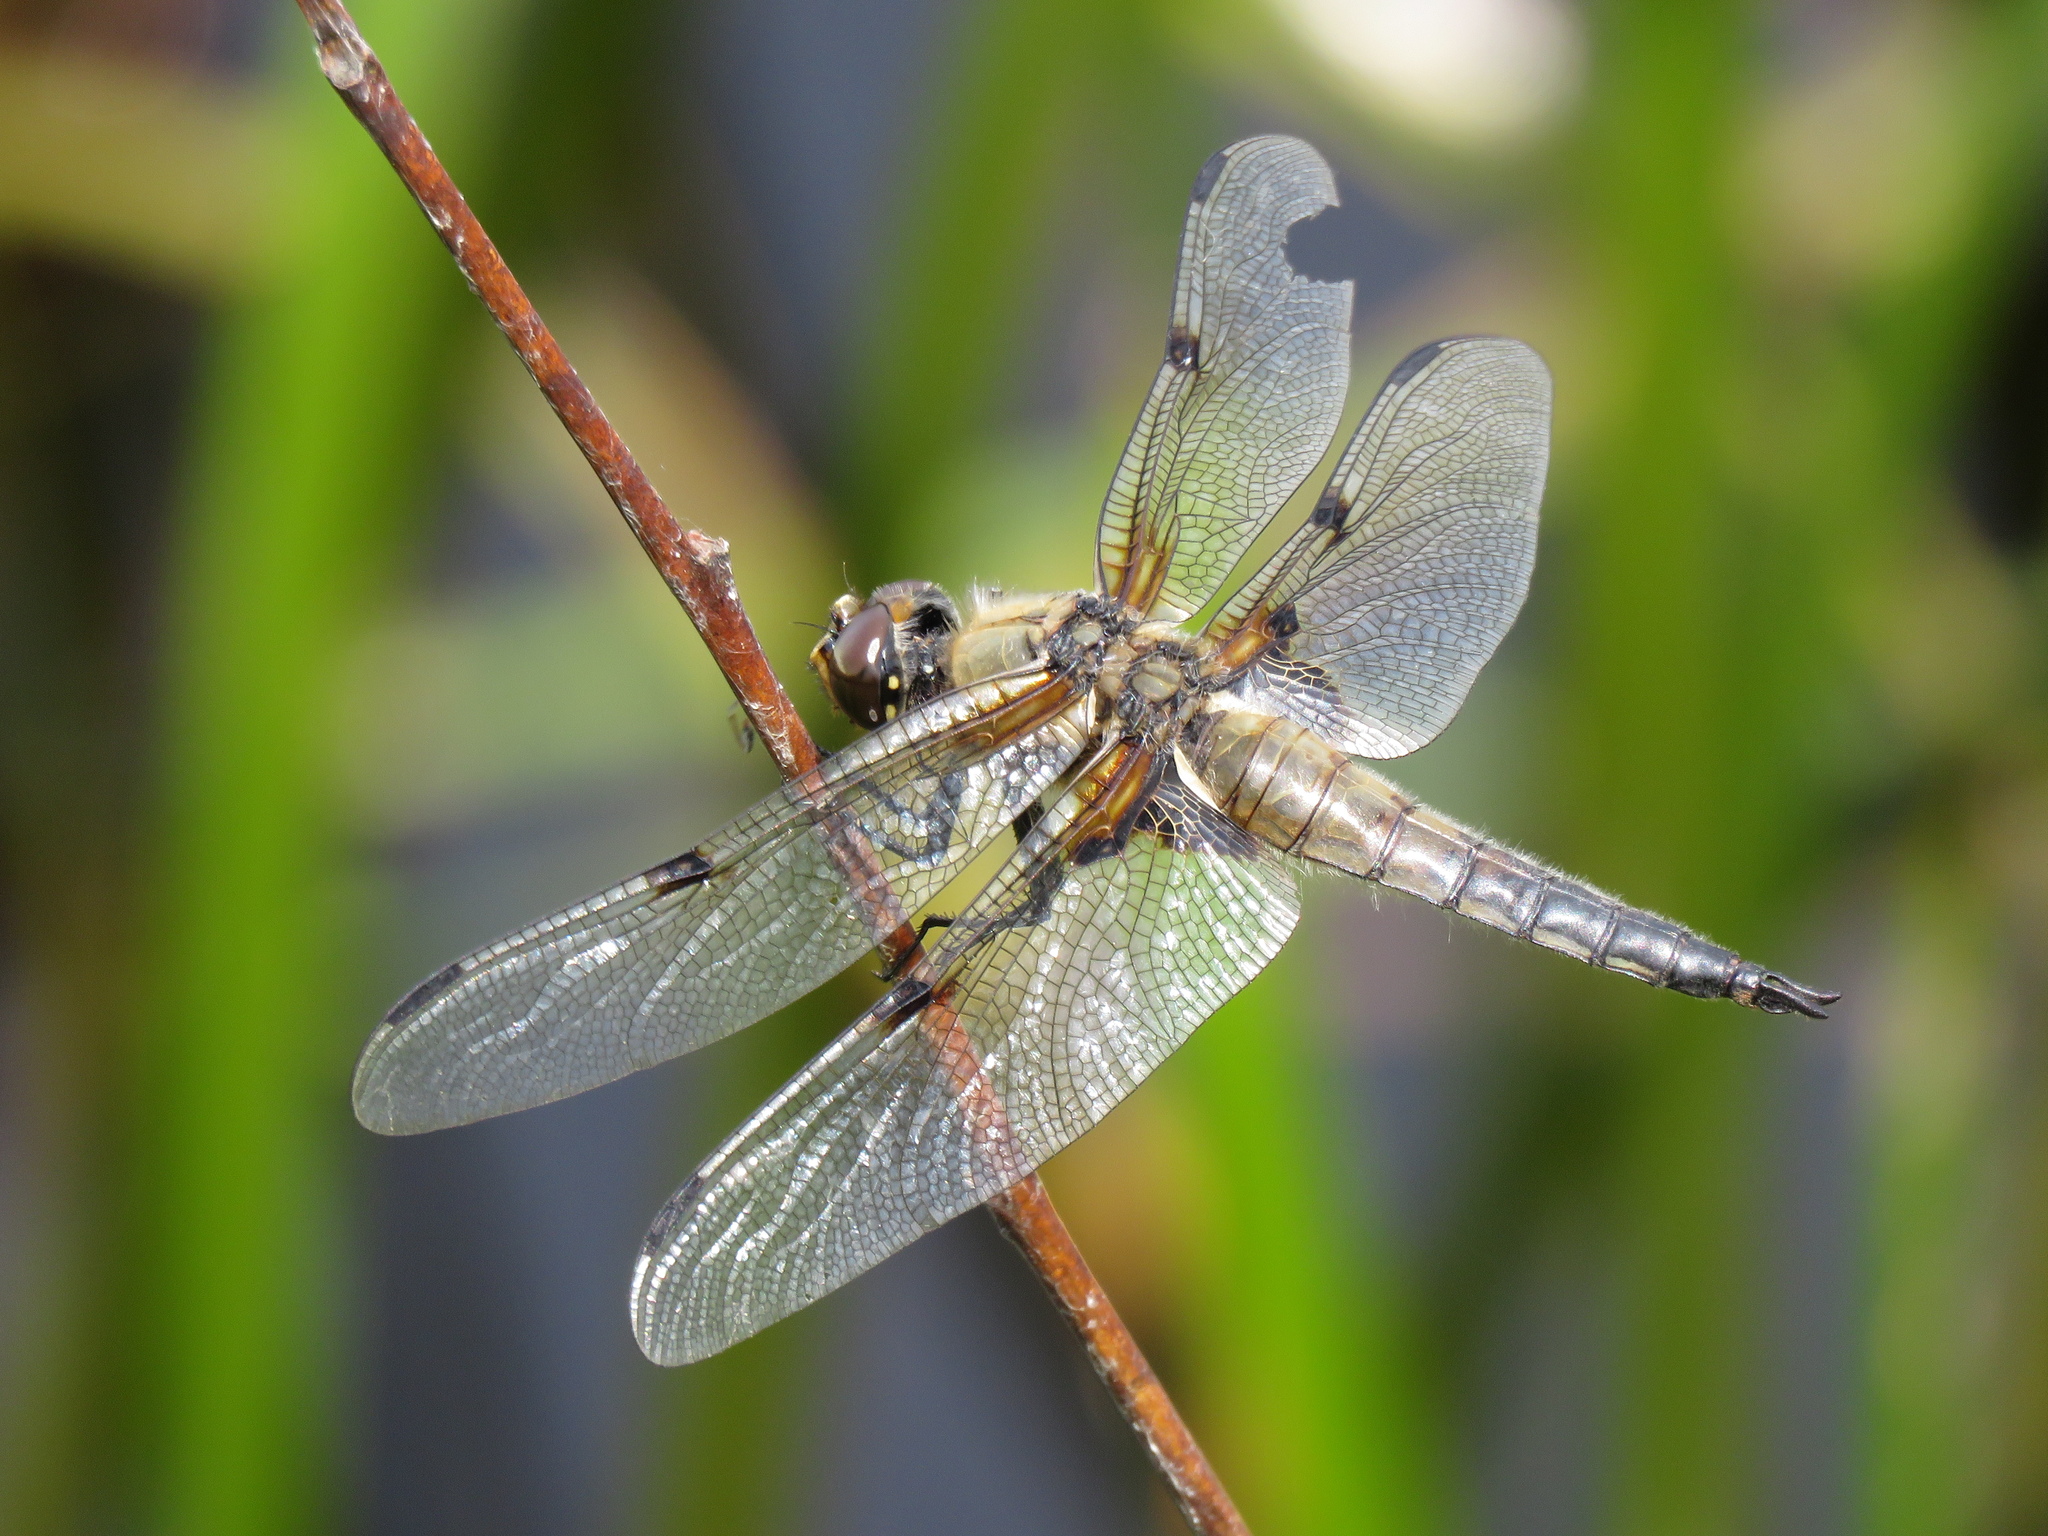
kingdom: Animalia
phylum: Arthropoda
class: Insecta
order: Odonata
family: Libellulidae
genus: Libellula
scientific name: Libellula quadrimaculata
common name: Four-spotted chaser
